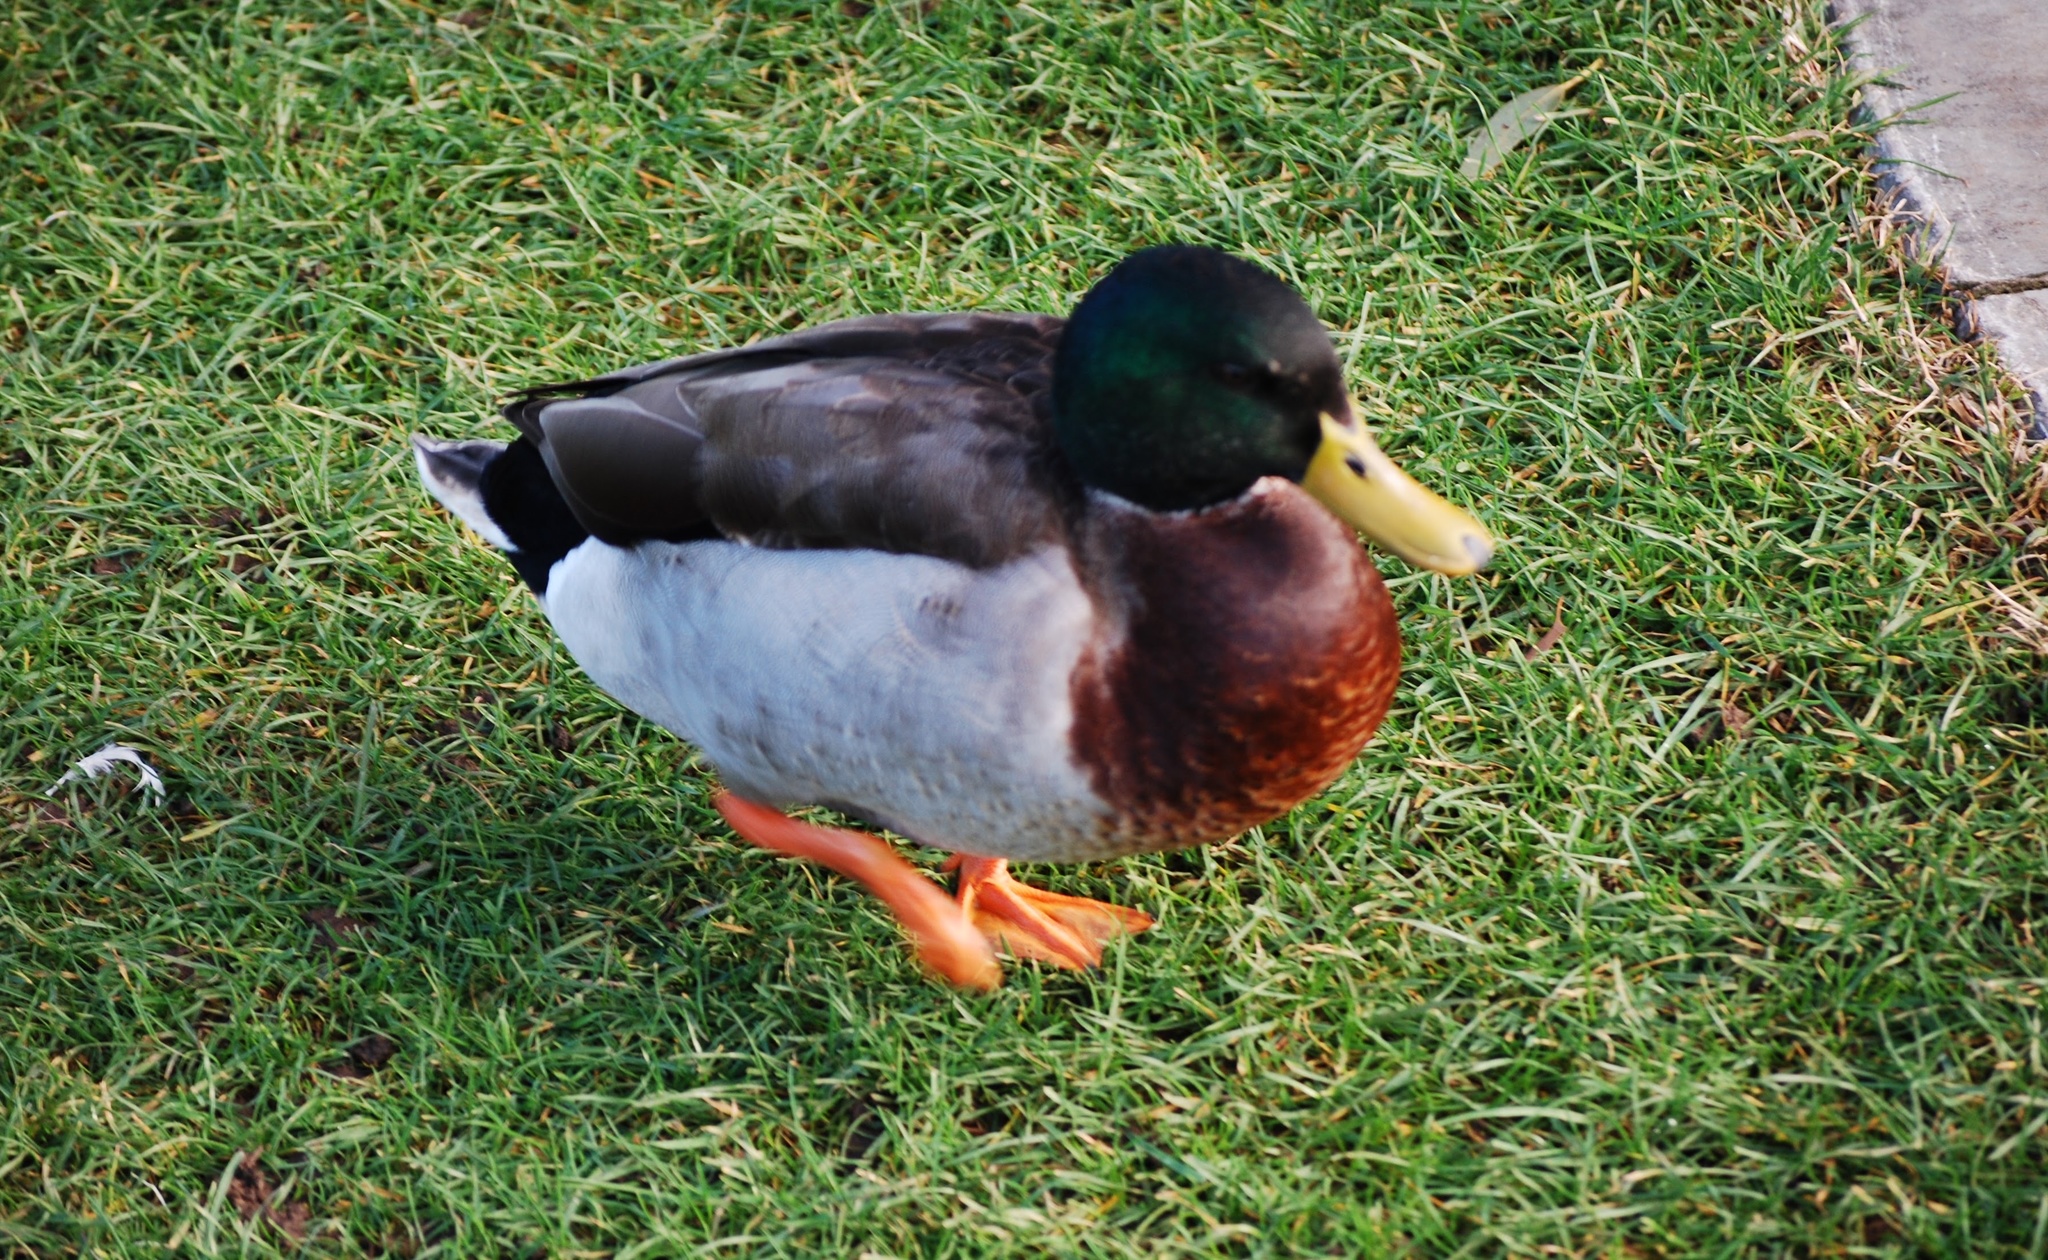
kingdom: Animalia
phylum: Chordata
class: Aves
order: Anseriformes
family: Anatidae
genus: Anas
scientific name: Anas platyrhynchos
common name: Mallard
